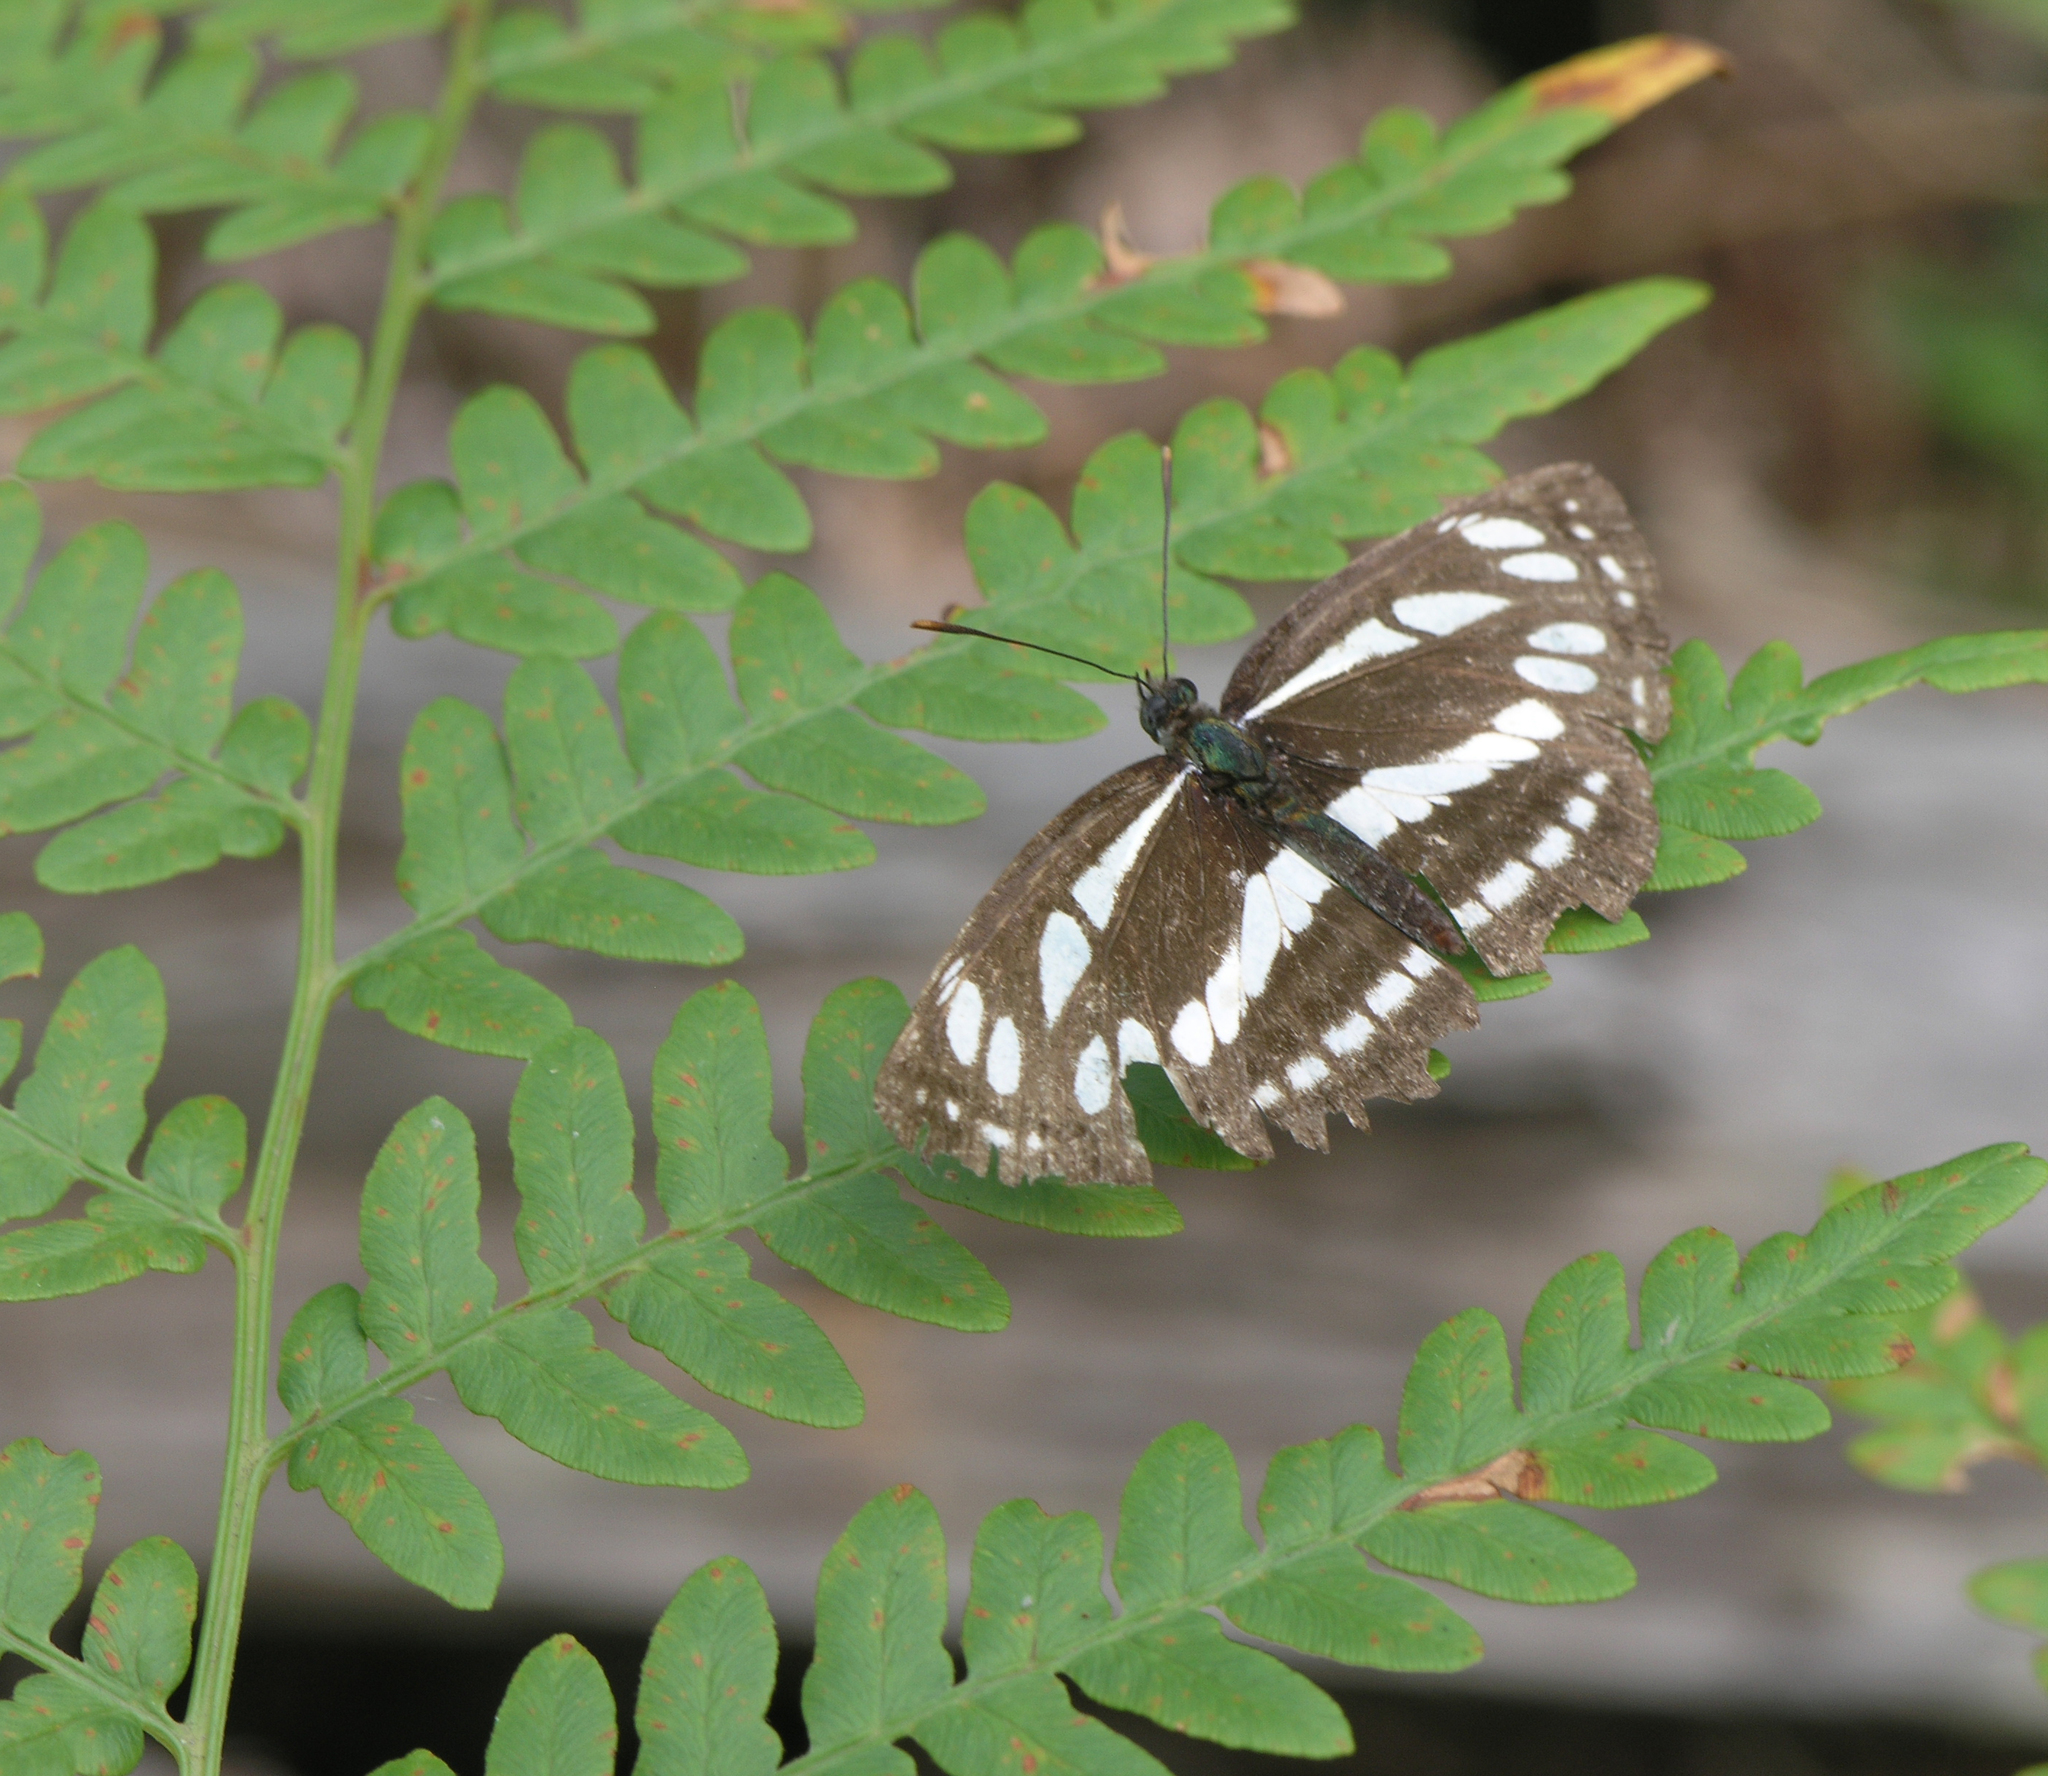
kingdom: Animalia
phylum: Arthropoda
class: Insecta
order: Lepidoptera
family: Nymphalidae
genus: Neptis
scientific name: Neptis sappho
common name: Common glider
